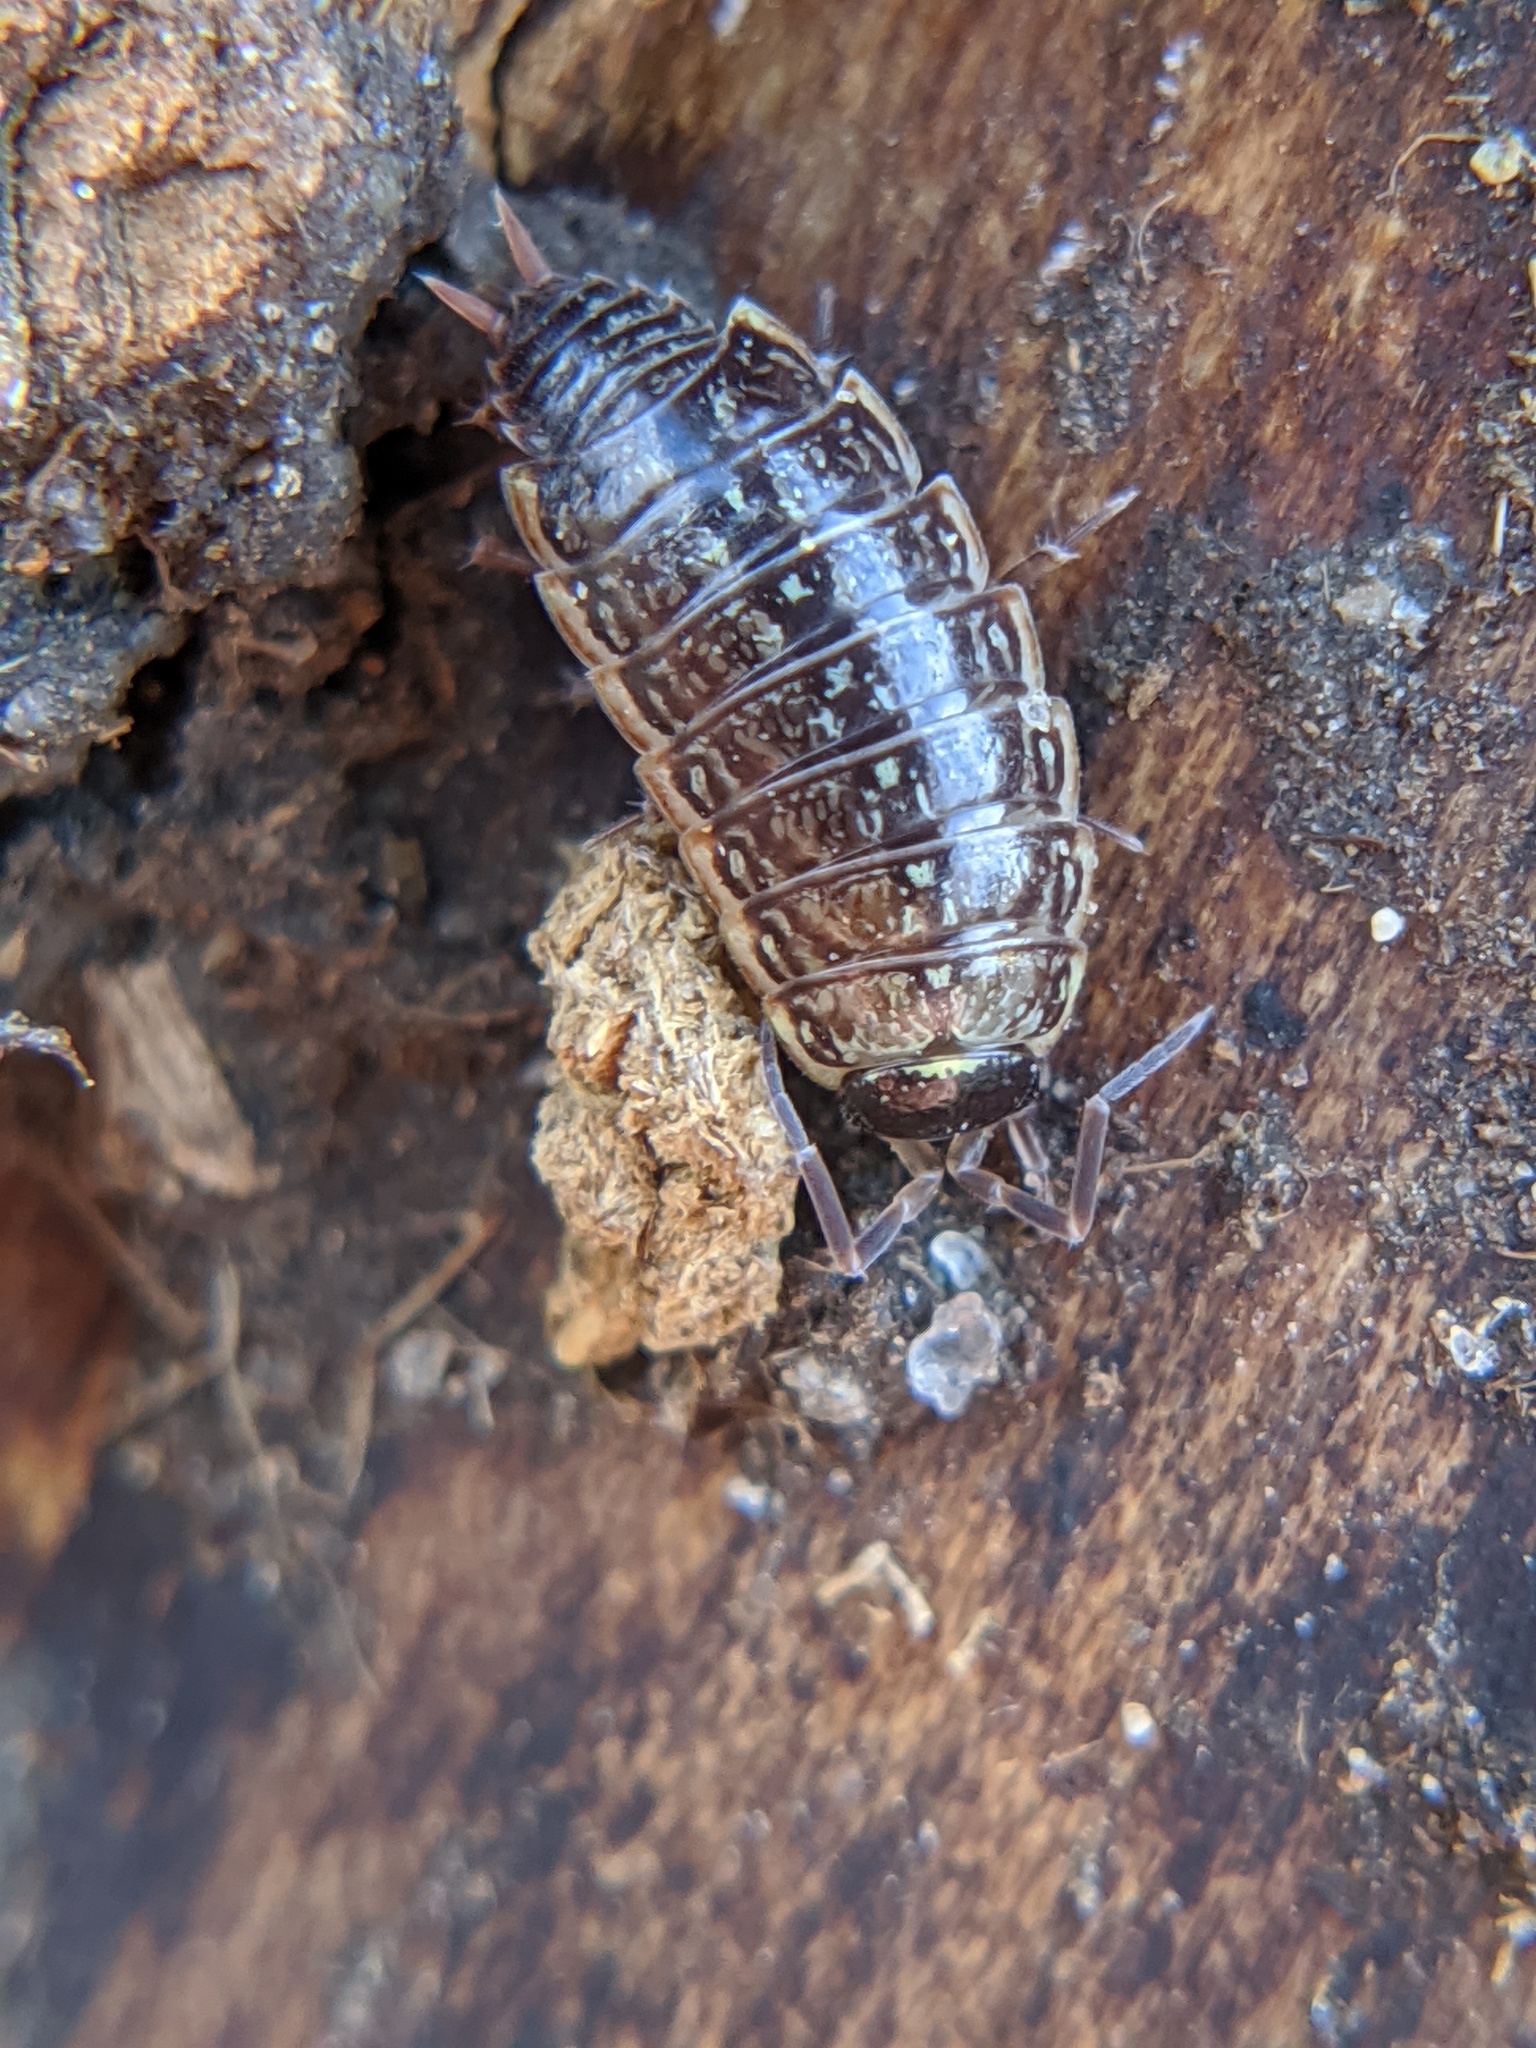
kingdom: Animalia
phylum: Arthropoda
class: Malacostraca
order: Isopoda
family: Philosciidae
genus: Philoscia
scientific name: Philoscia muscorum
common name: Common striped woodlouse
